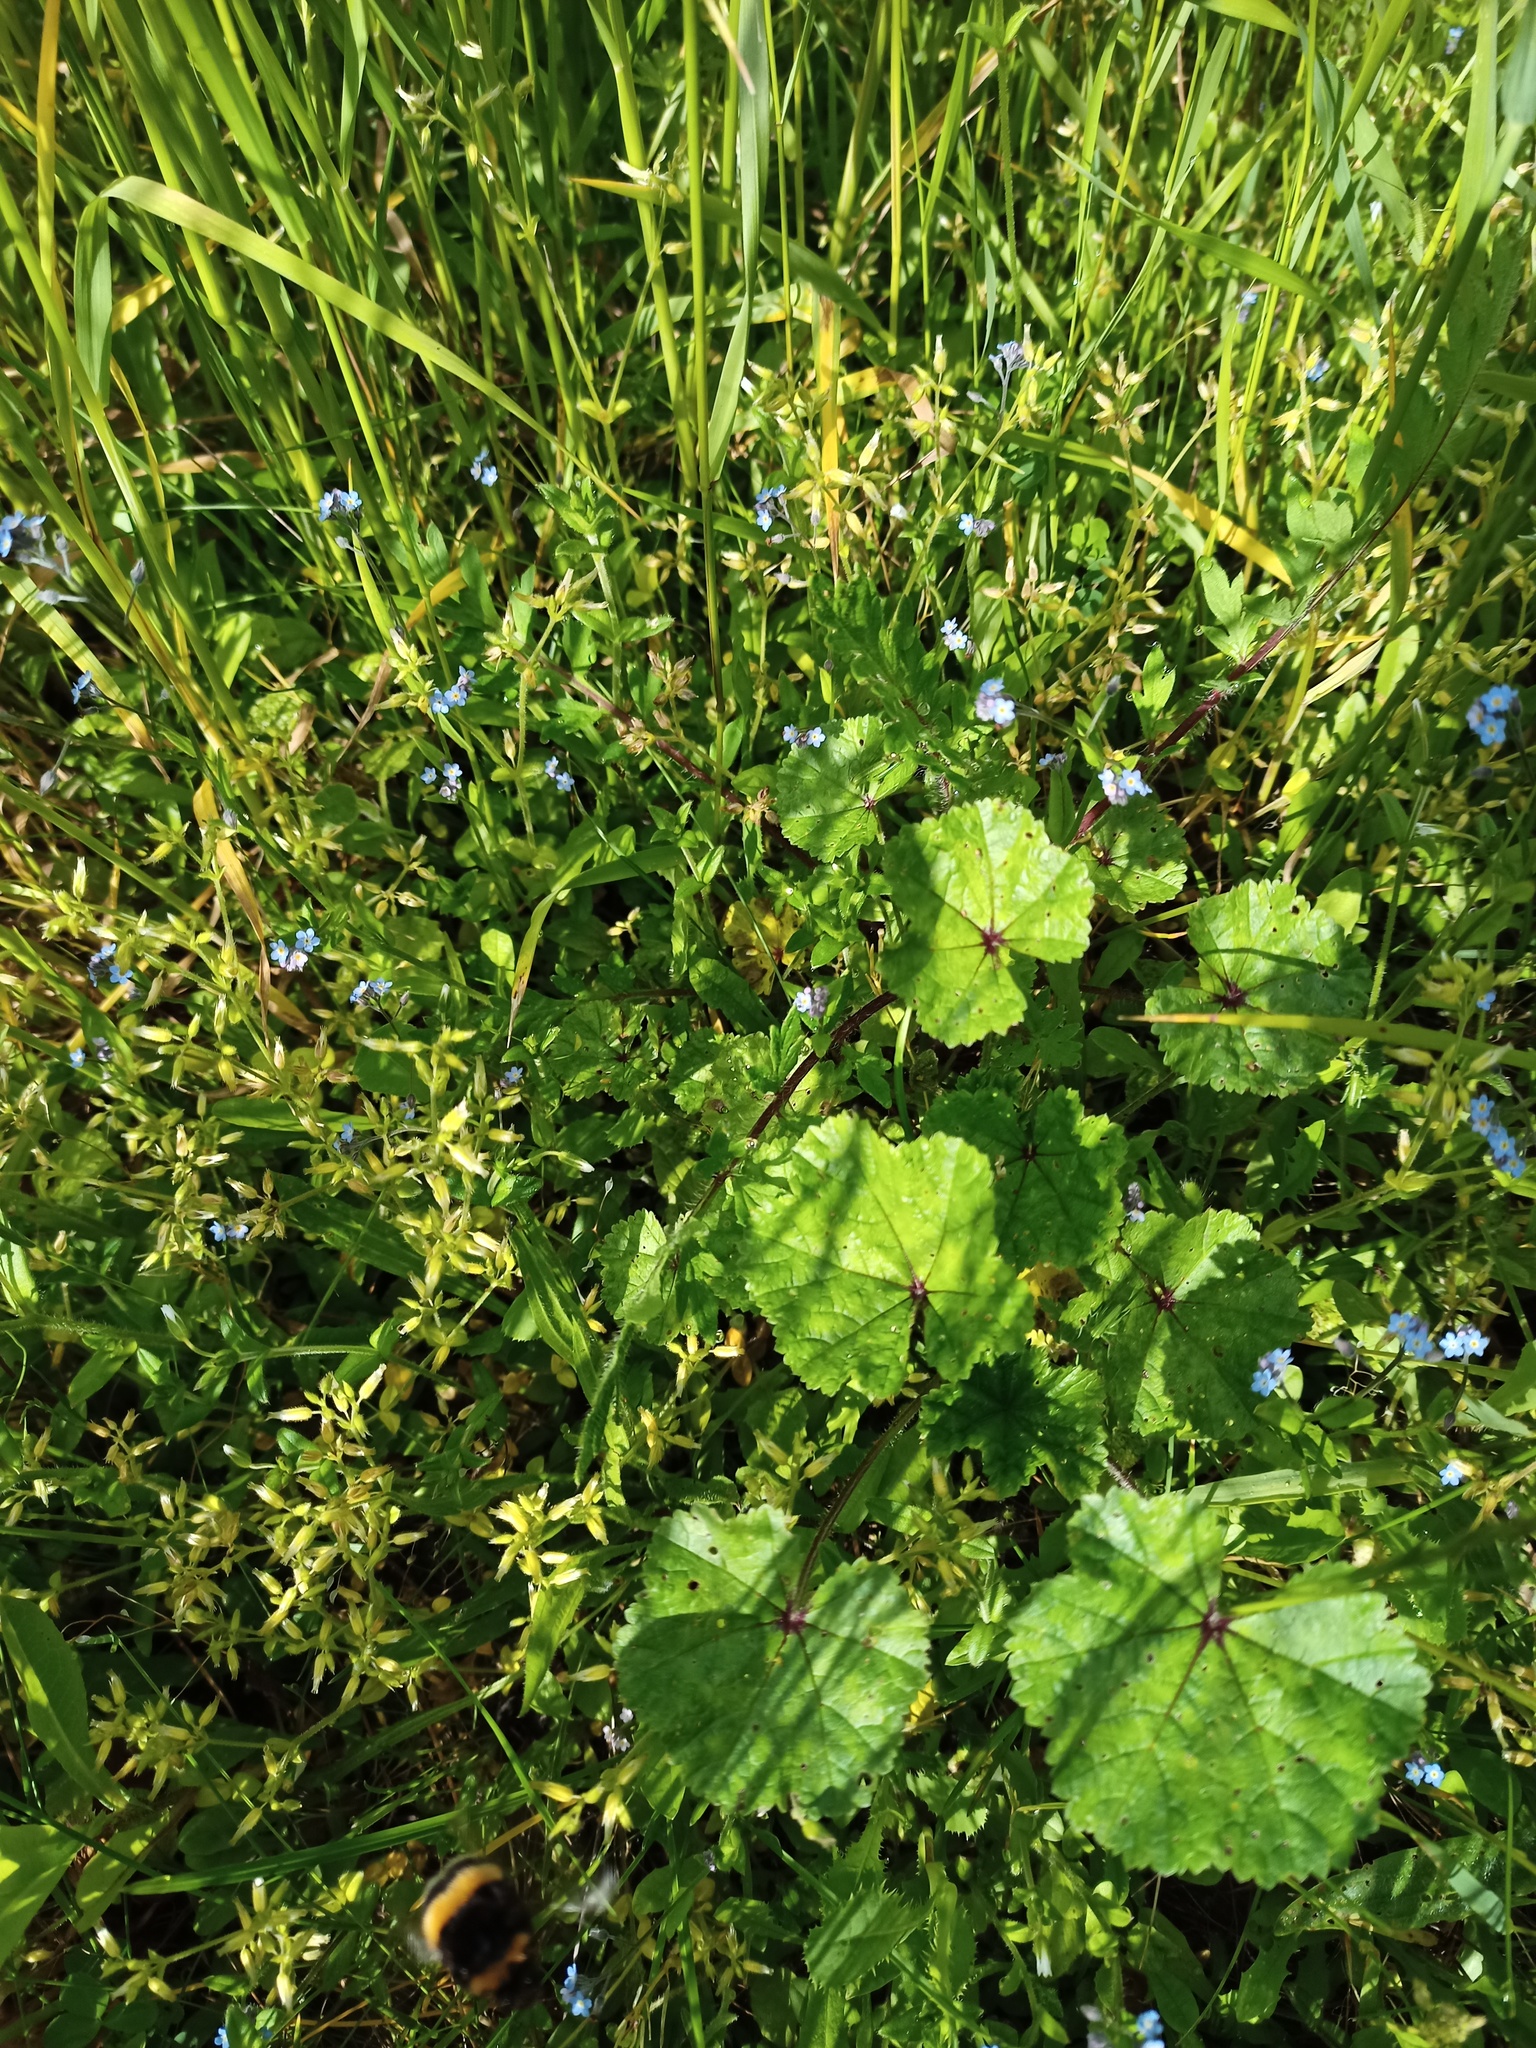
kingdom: Plantae
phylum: Tracheophyta
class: Magnoliopsida
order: Malvales
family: Malvaceae
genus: Malva
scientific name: Malva neglecta
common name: Common mallow
